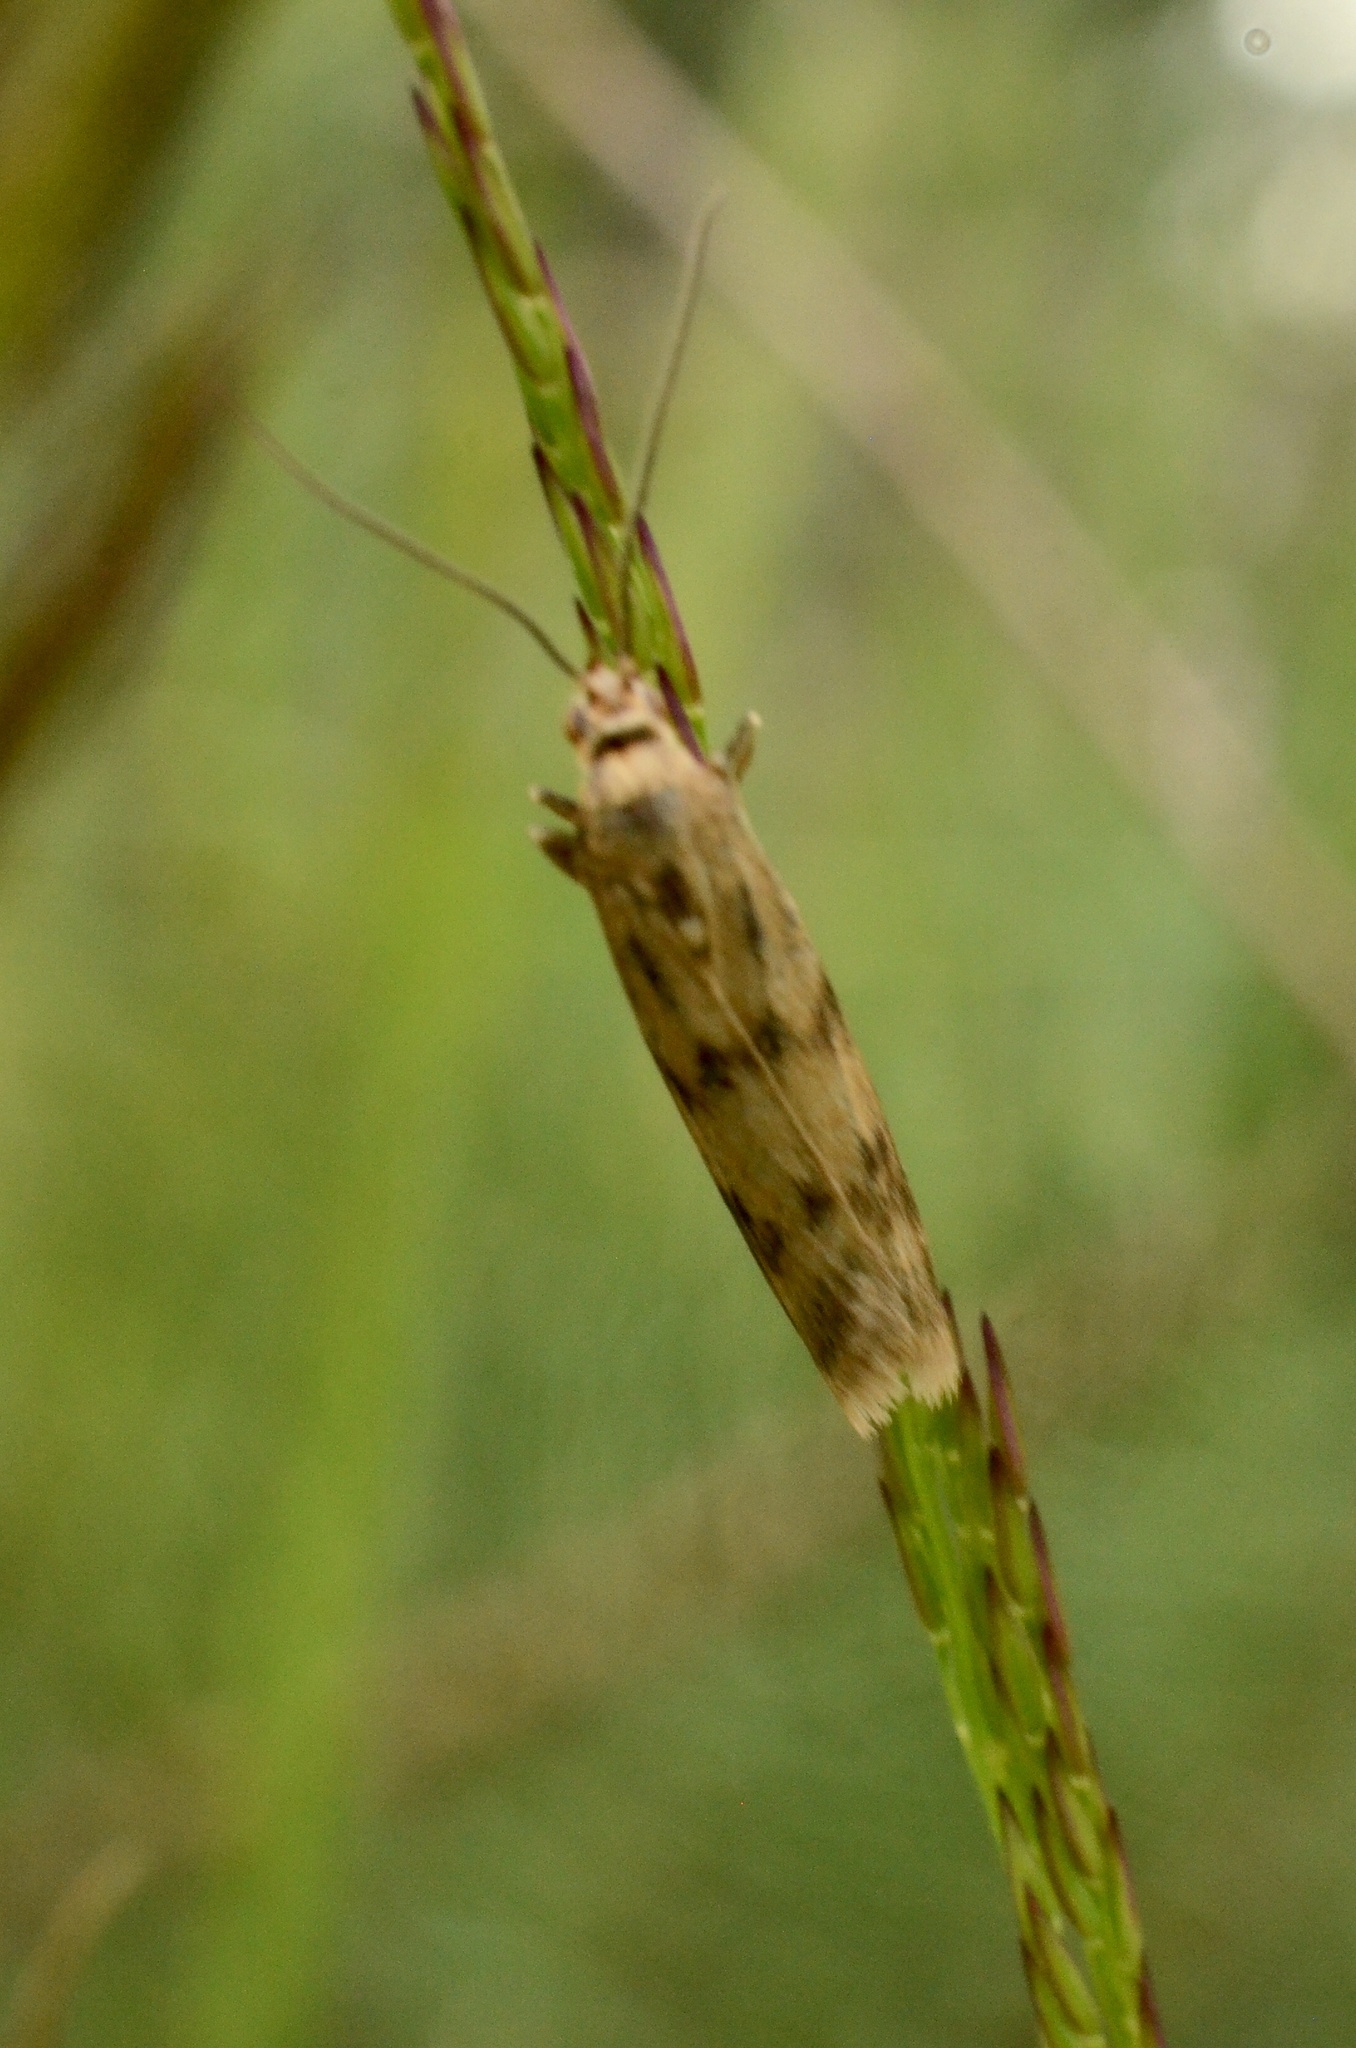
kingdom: Animalia
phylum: Arthropoda
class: Insecta
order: Lepidoptera
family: Pyralidae
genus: Homoeosoma
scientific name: Homoeosoma sinuella
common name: Twin-barred knot-horn
